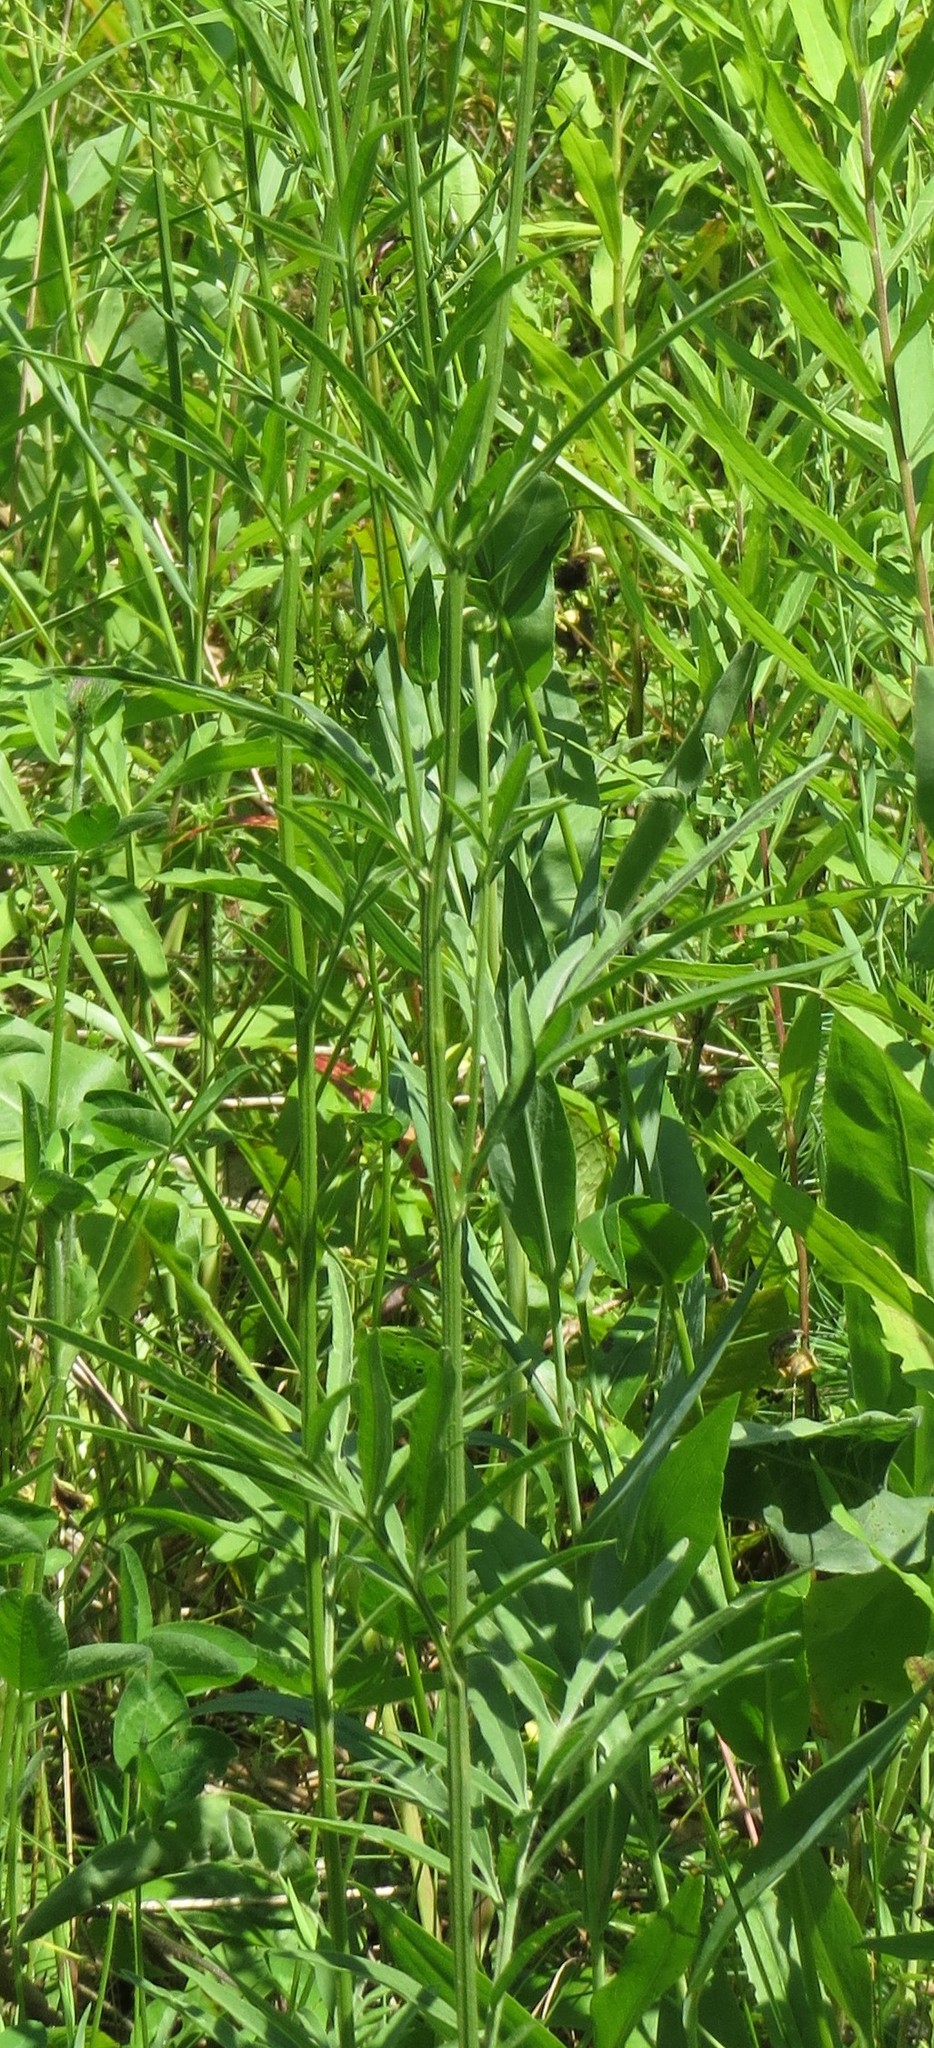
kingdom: Plantae
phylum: Tracheophyta
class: Magnoliopsida
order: Asterales
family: Asteraceae
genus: Ratibida
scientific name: Ratibida pinnata
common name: Drooping prairie-coneflower
